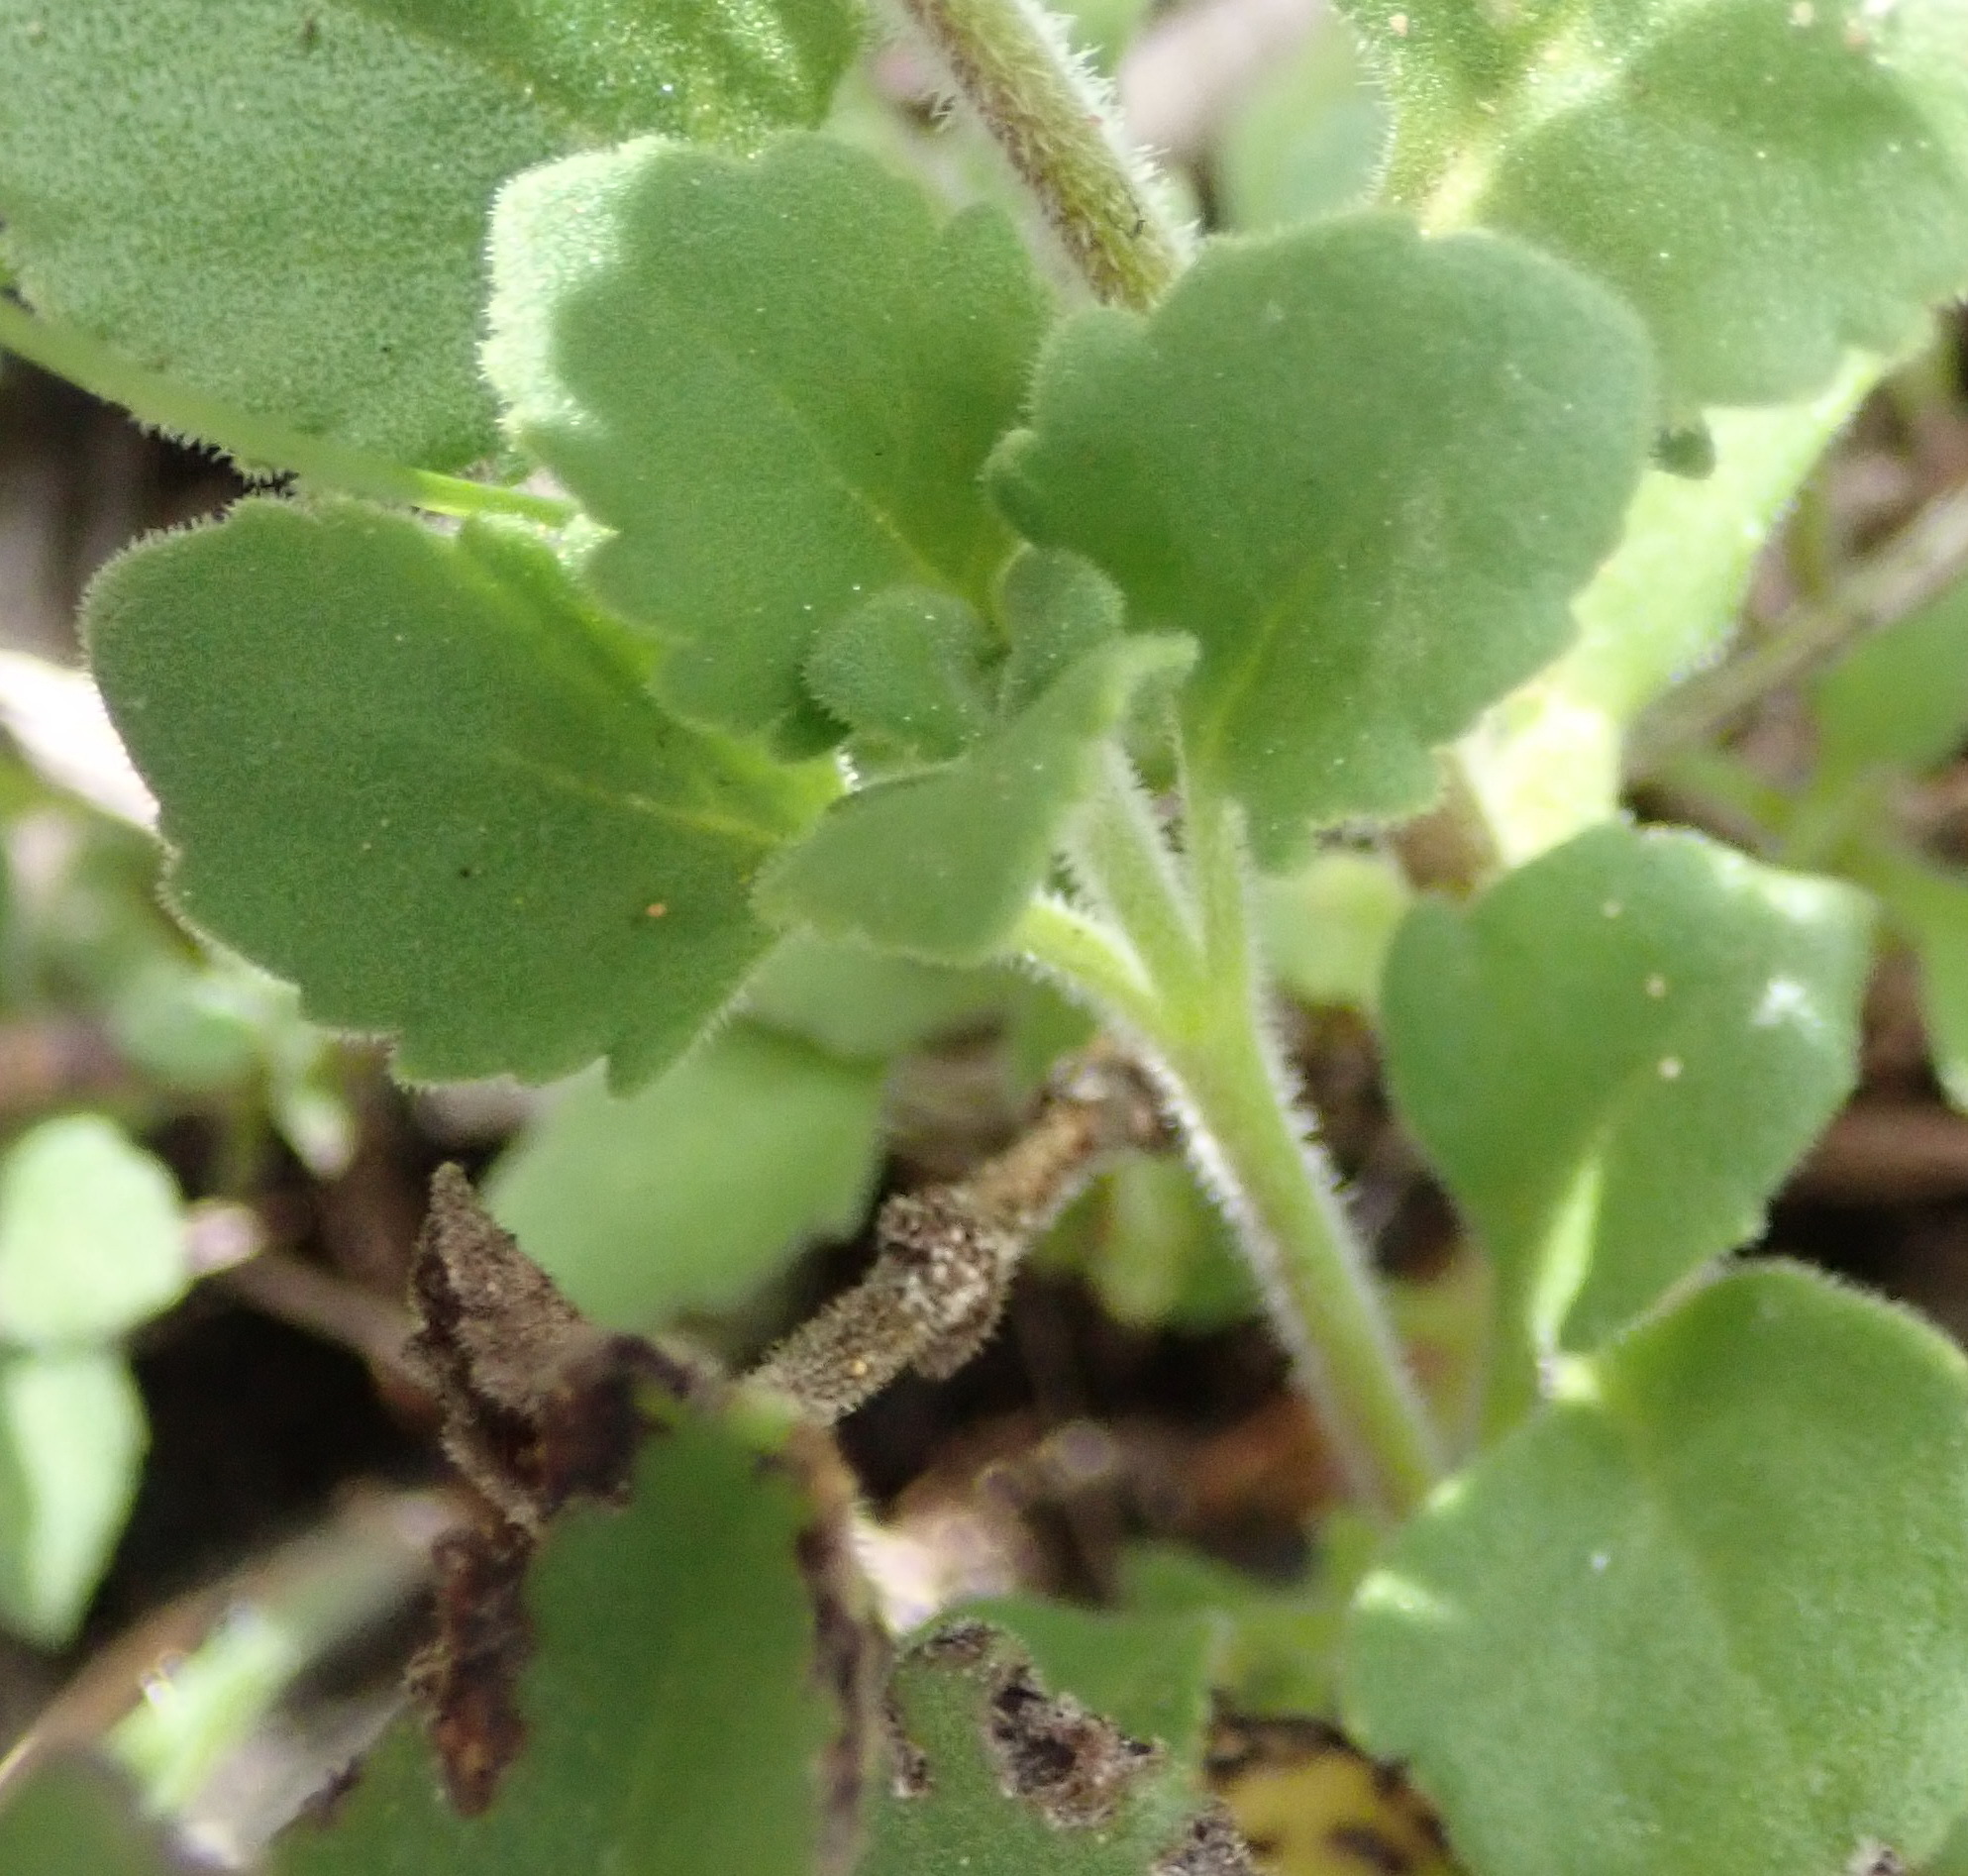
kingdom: Plantae
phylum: Tracheophyta
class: Magnoliopsida
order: Lamiales
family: Scrophulariaceae
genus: Chaenostoma
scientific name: Chaenostoma campanulatum
